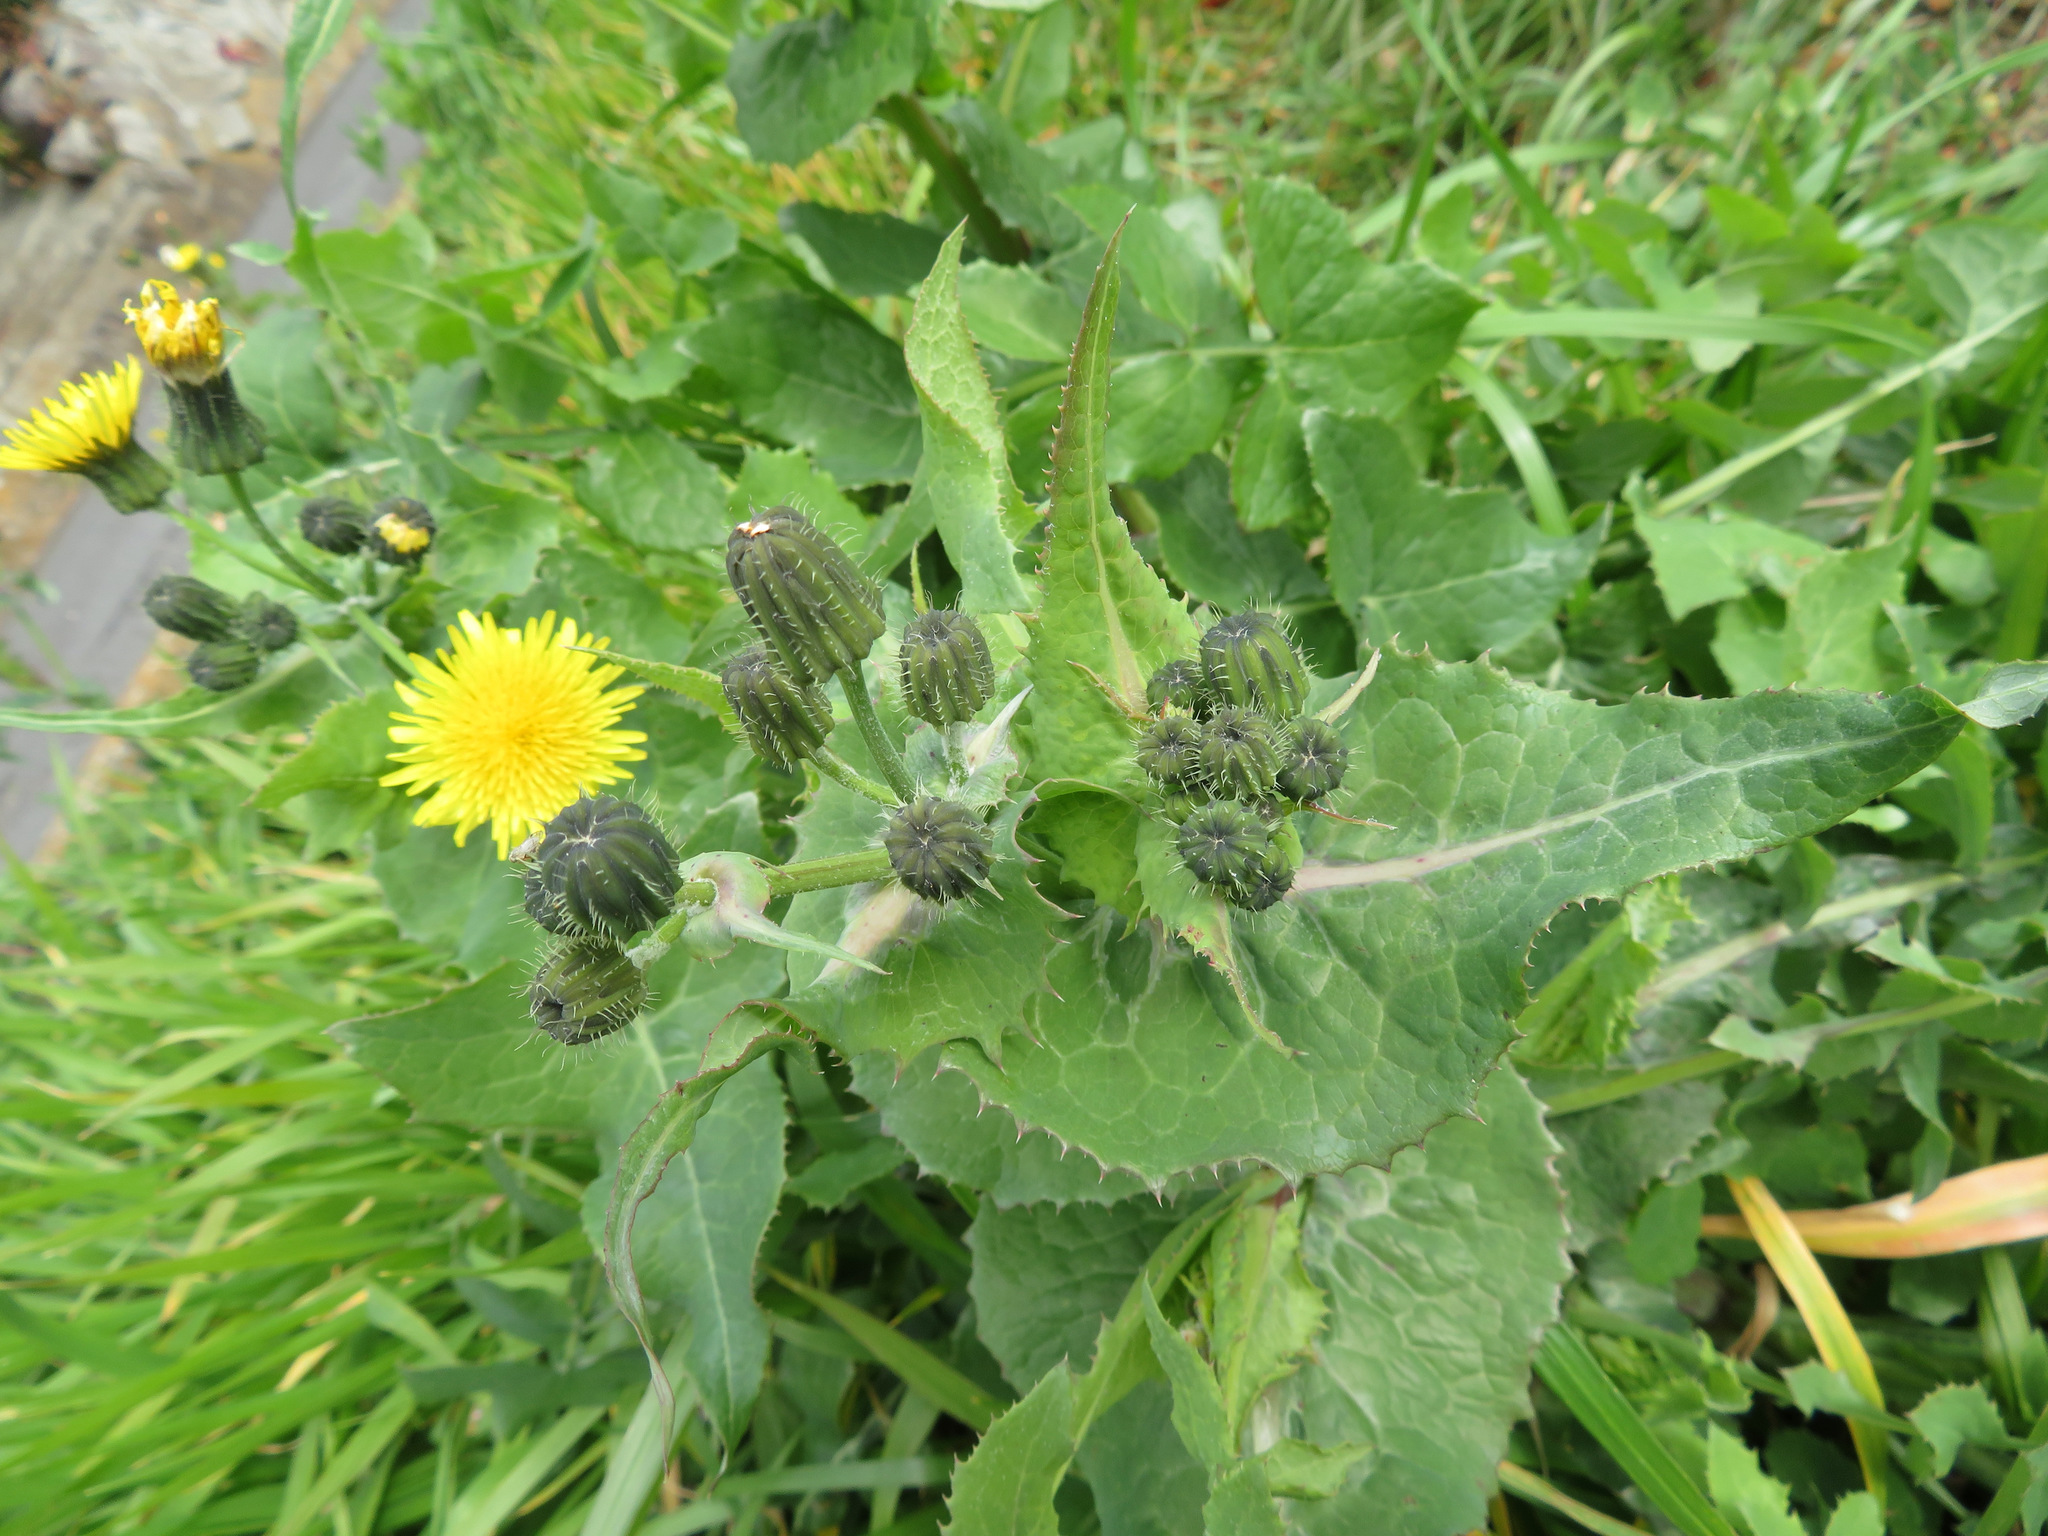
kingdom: Plantae
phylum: Tracheophyta
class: Magnoliopsida
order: Asterales
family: Asteraceae
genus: Sonchus
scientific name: Sonchus oleraceus
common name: Common sowthistle
